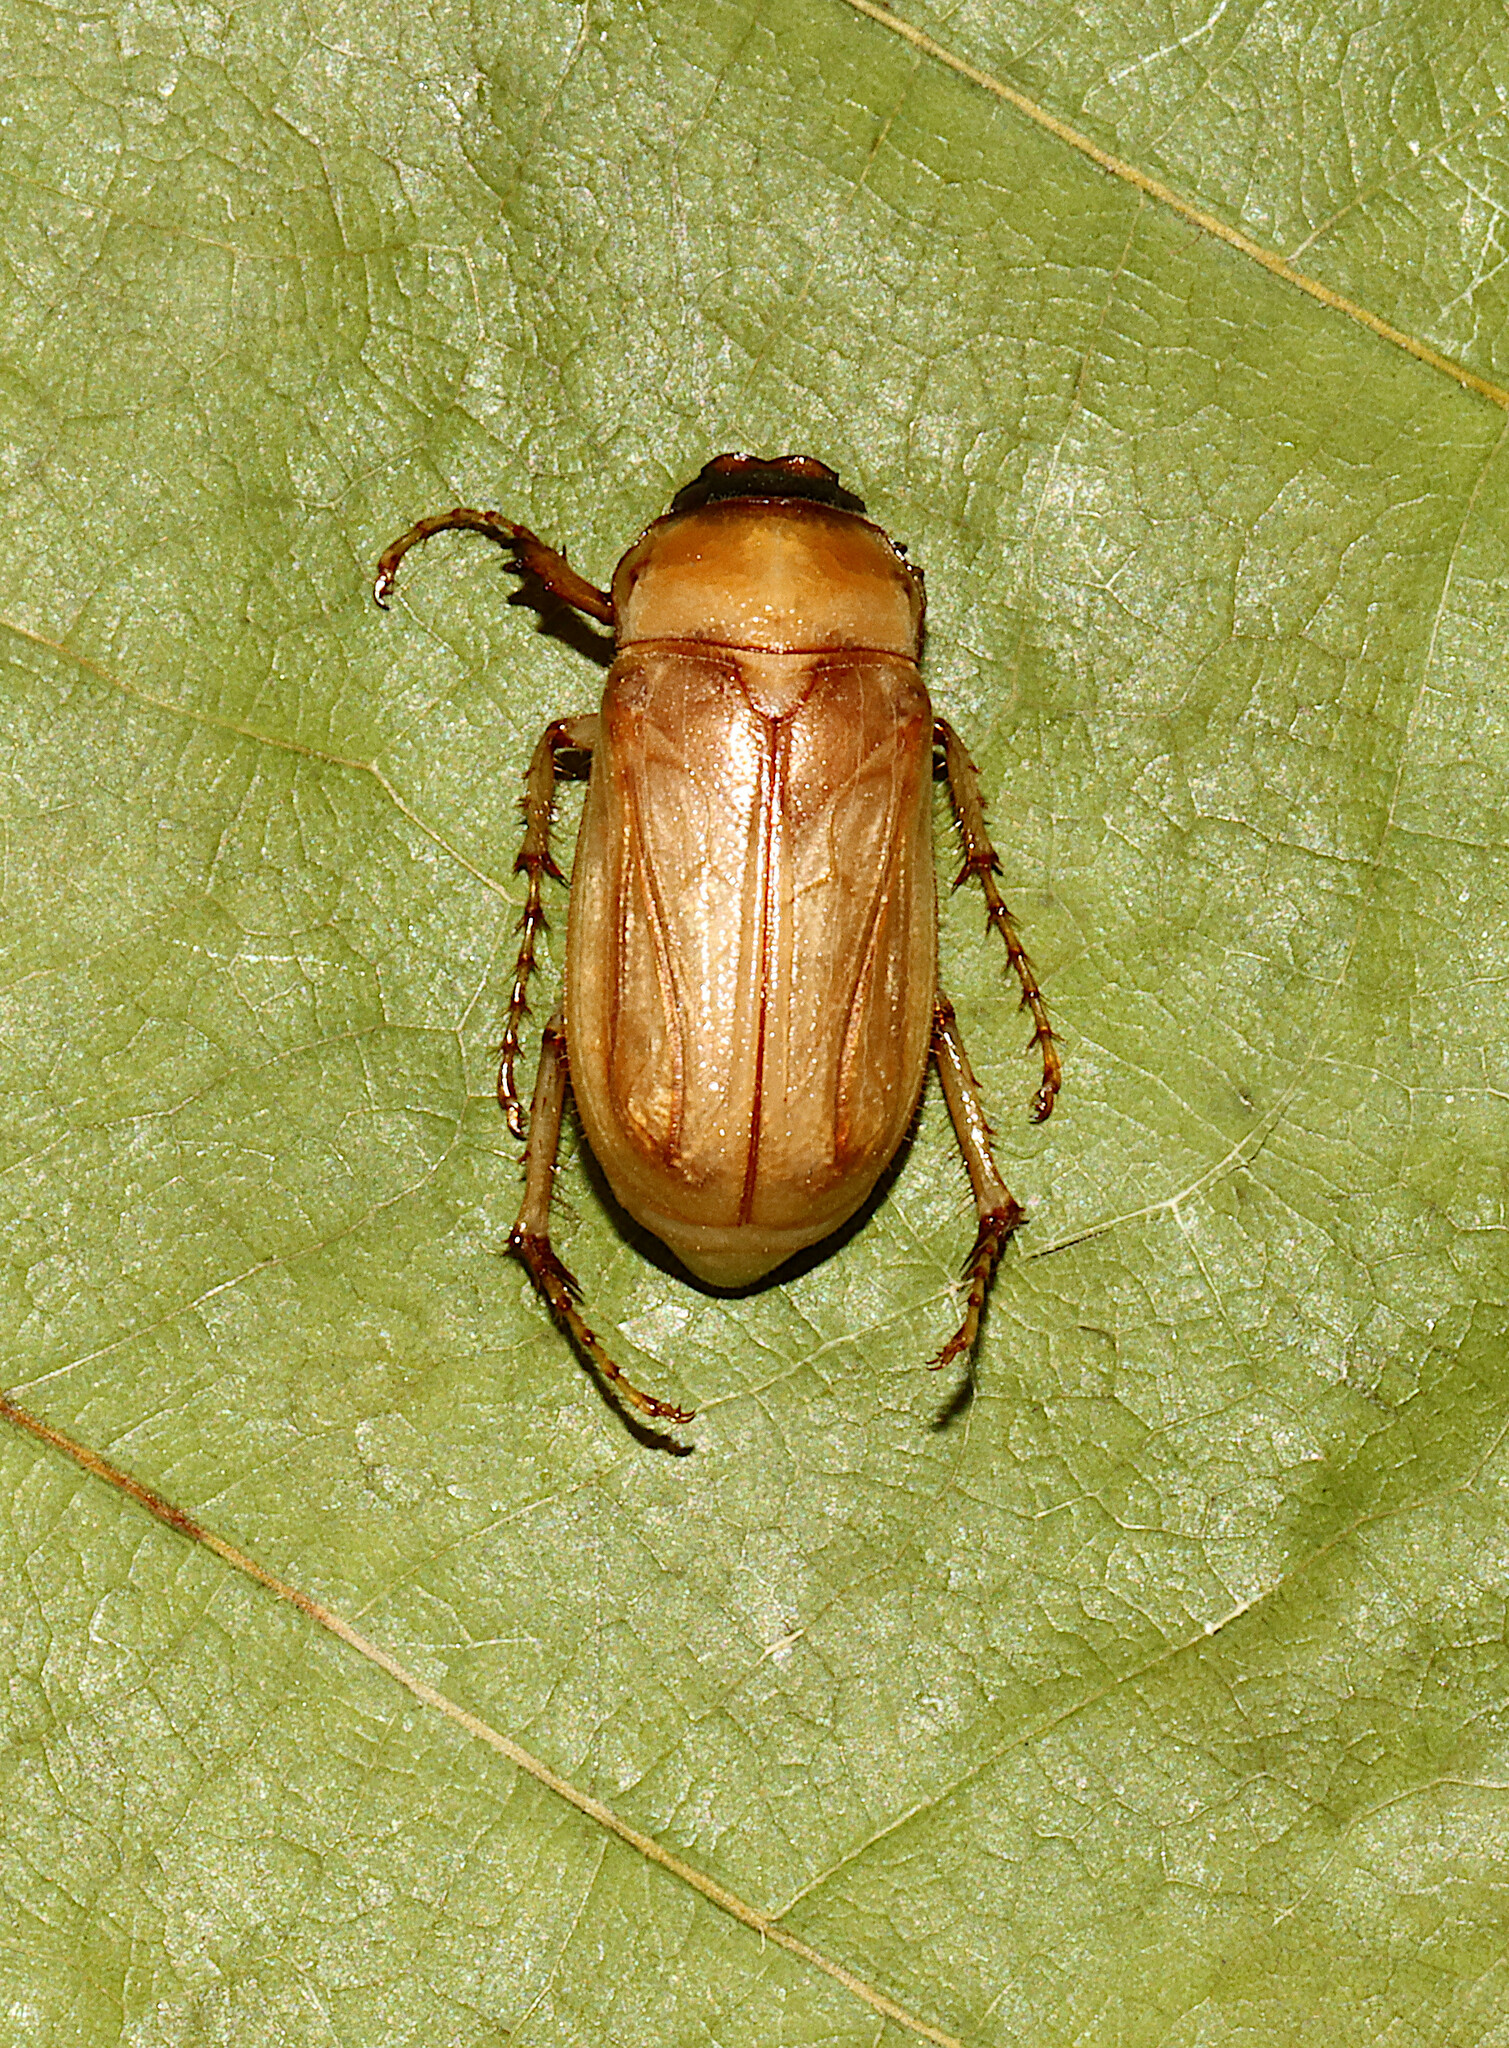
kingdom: Animalia
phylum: Arthropoda
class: Insecta
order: Coleoptera
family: Scarabaeidae
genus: Phyllophaga
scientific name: Phyllophaga longitarsa
